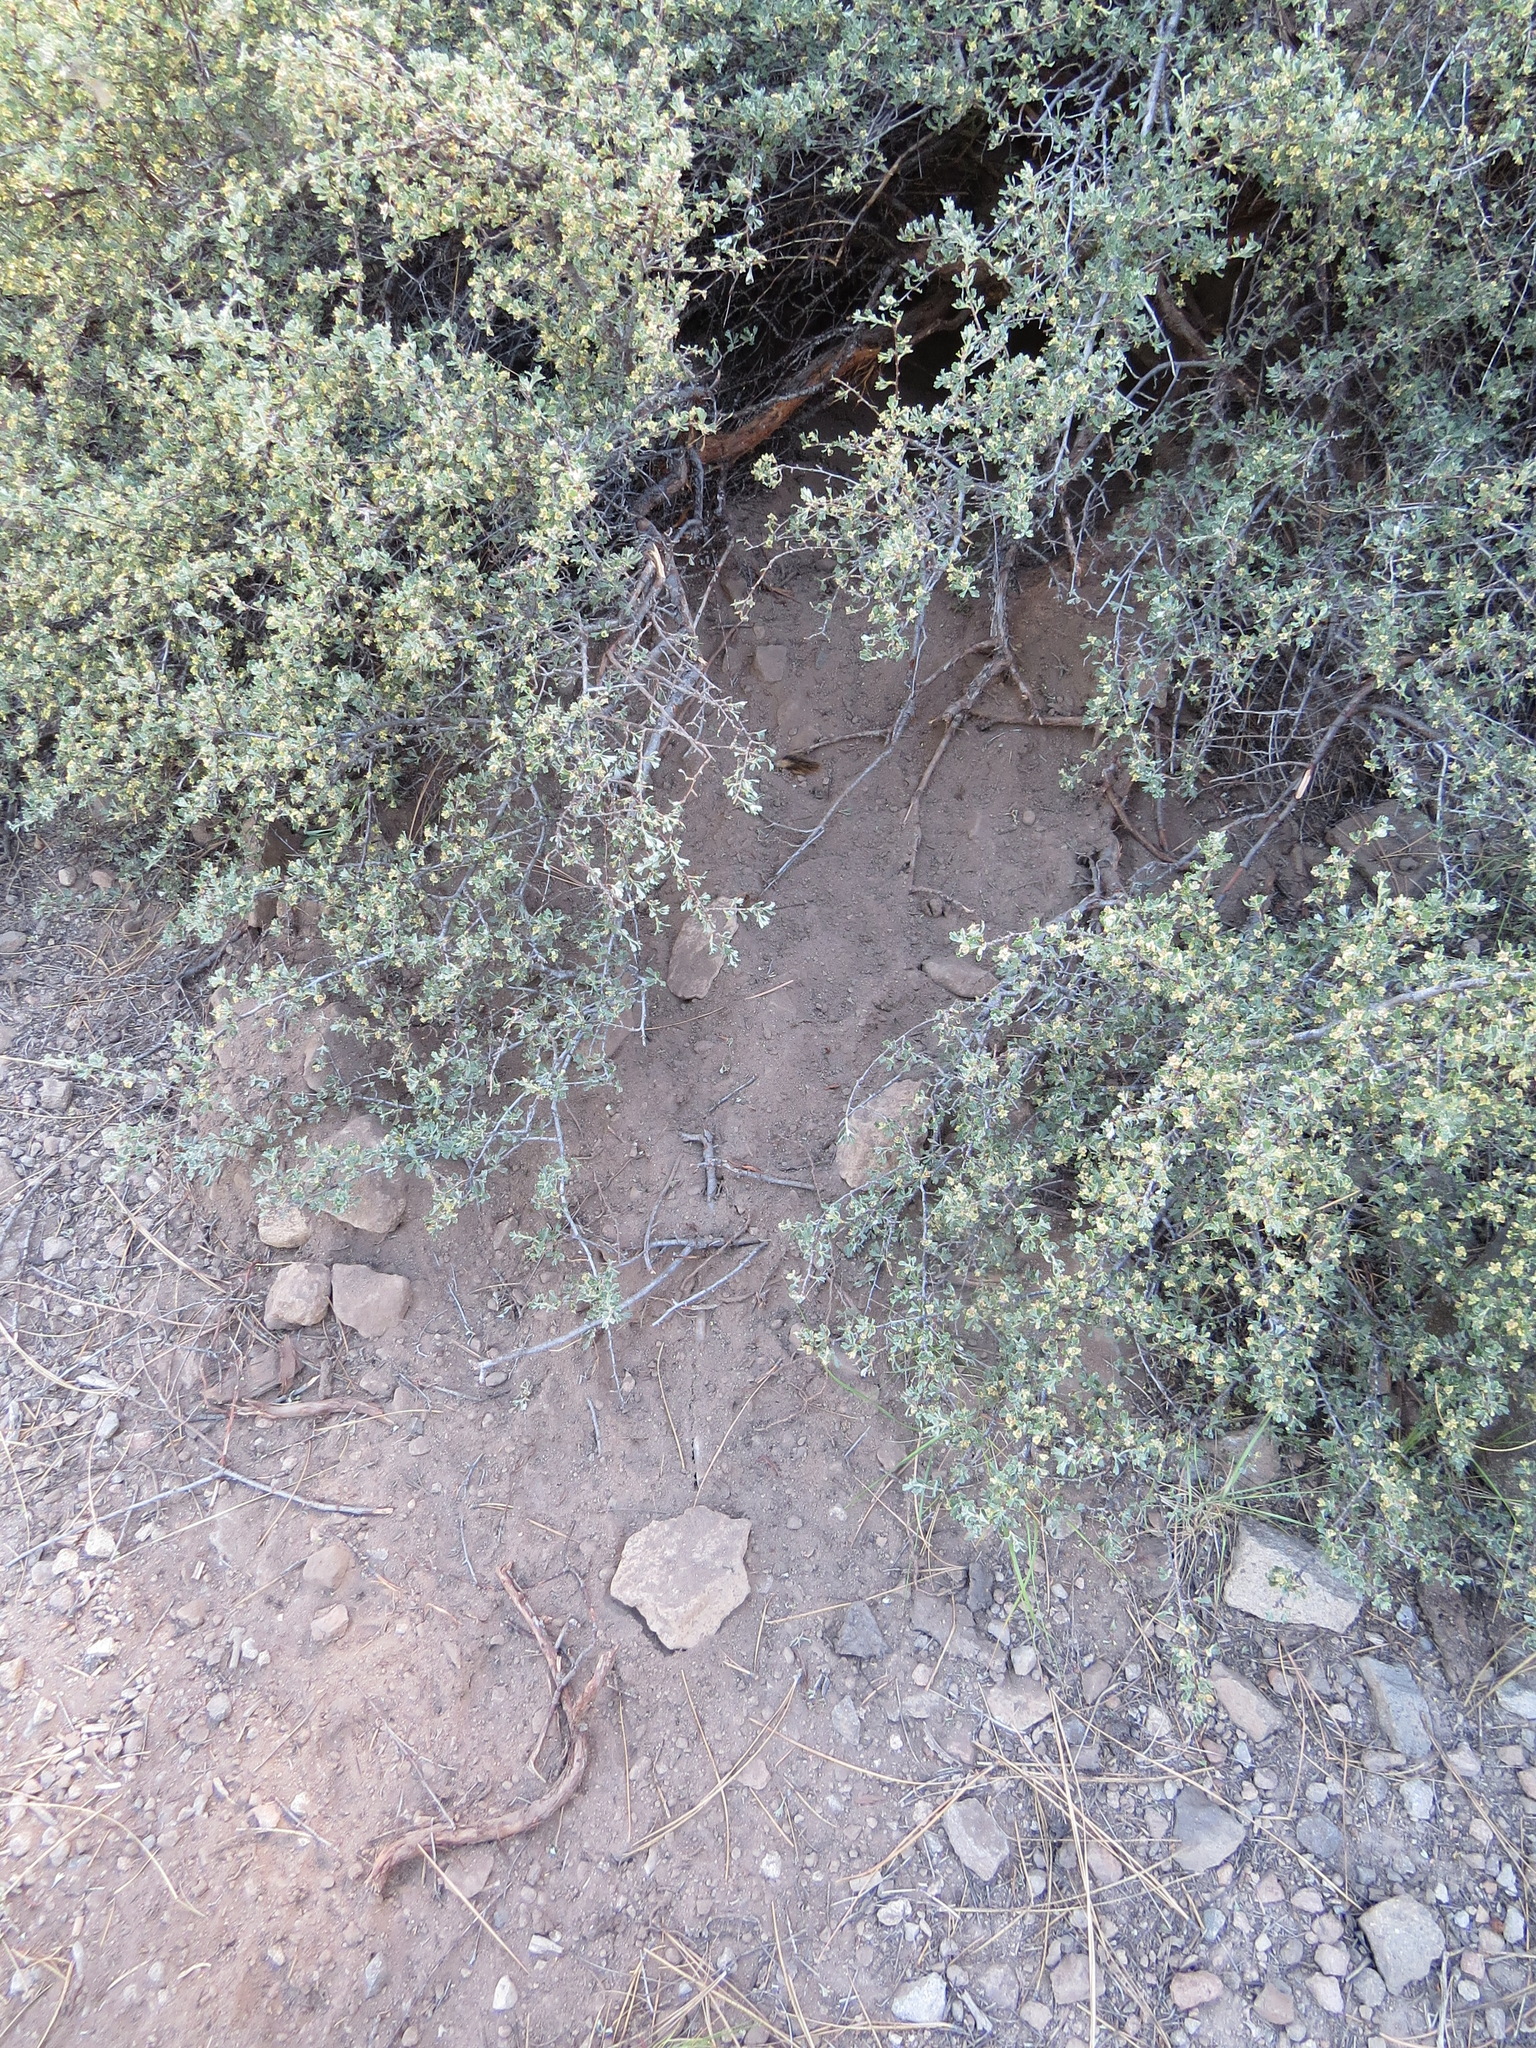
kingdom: Animalia
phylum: Chordata
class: Mammalia
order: Rodentia
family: Sciuridae
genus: Callospermophilus
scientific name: Callospermophilus lateralis
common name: Golden-mantled ground squirrel
